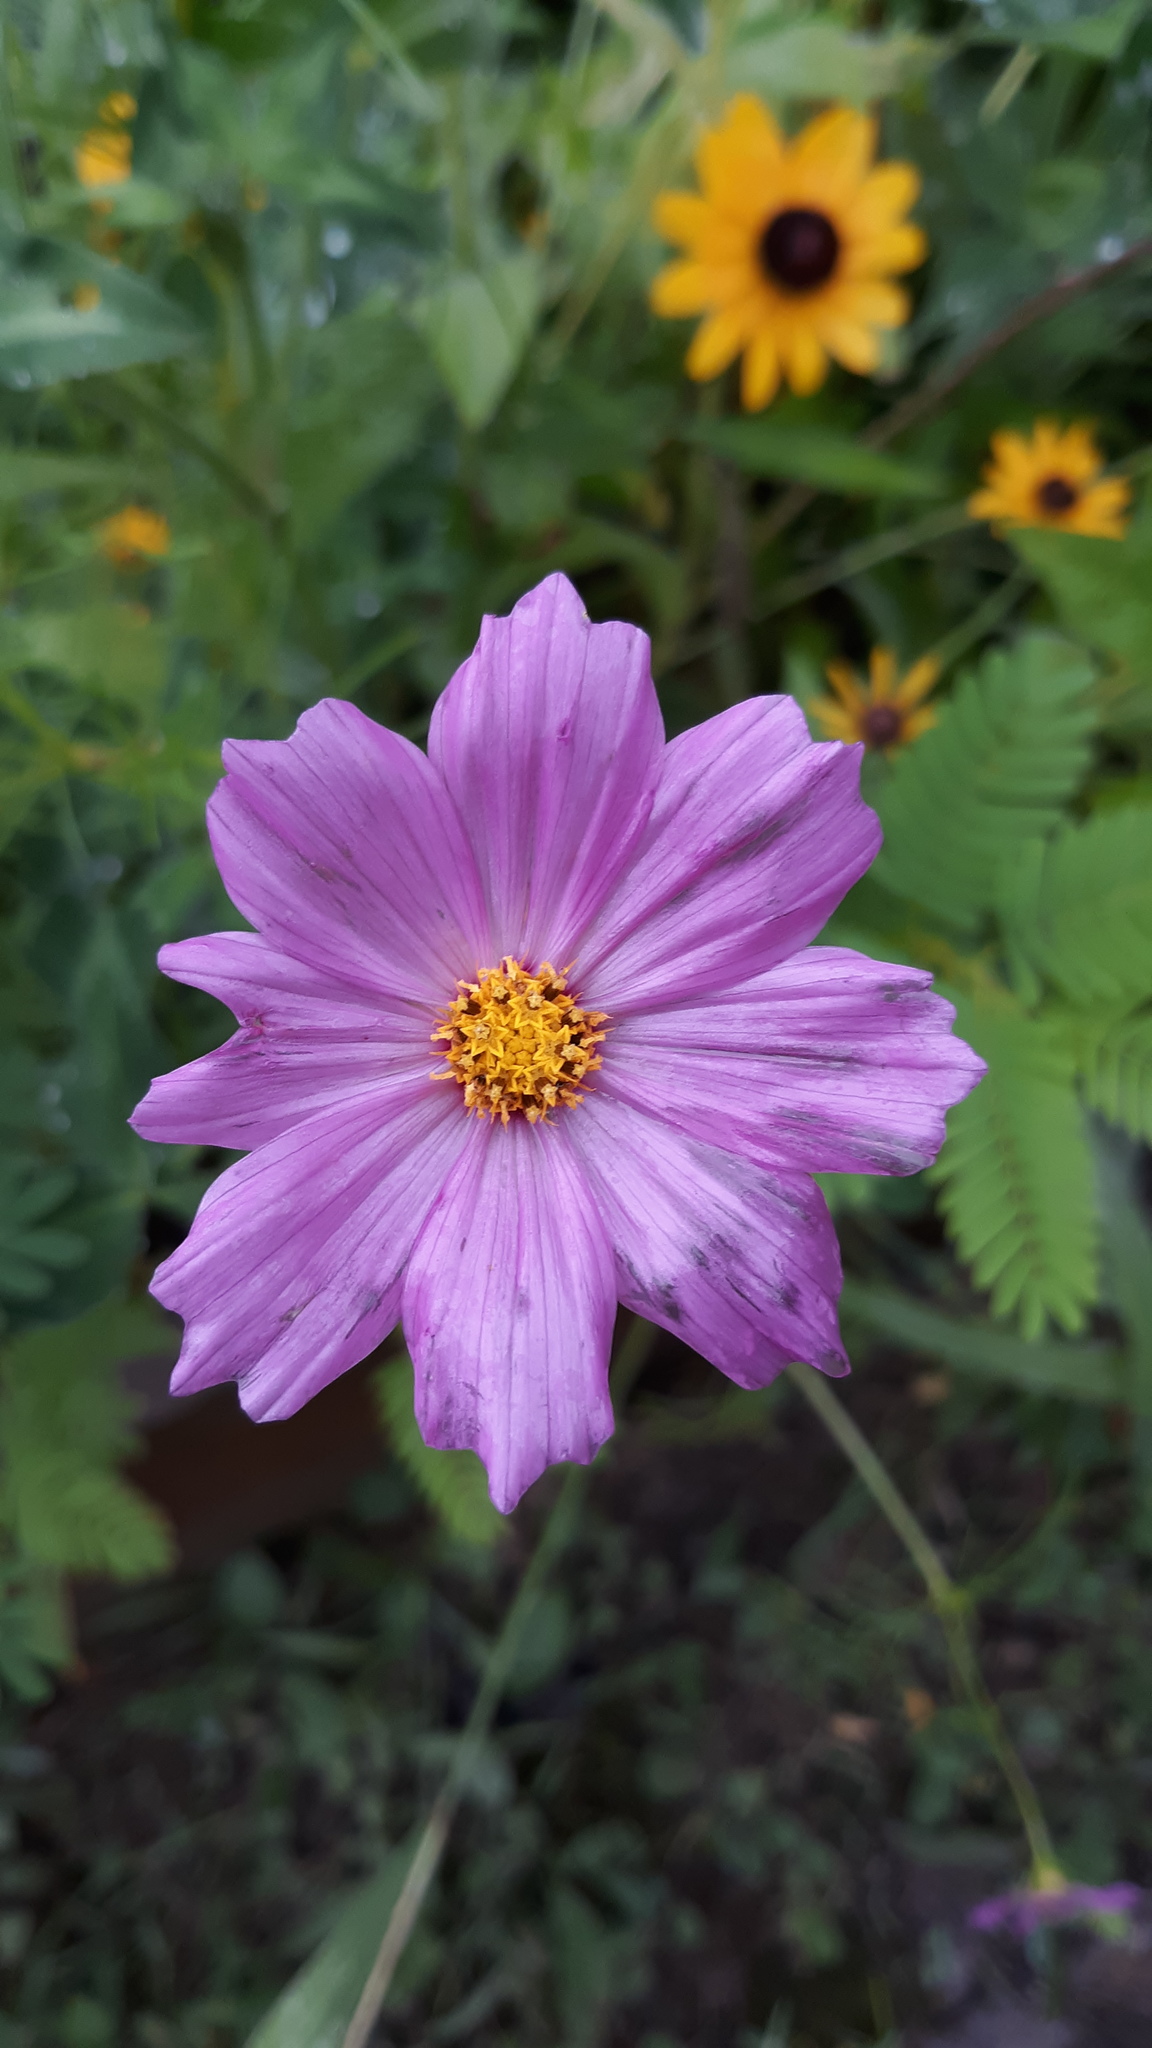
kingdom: Plantae
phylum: Tracheophyta
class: Magnoliopsida
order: Asterales
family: Asteraceae
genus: Cosmos
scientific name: Cosmos bipinnatus
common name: Garden cosmos
